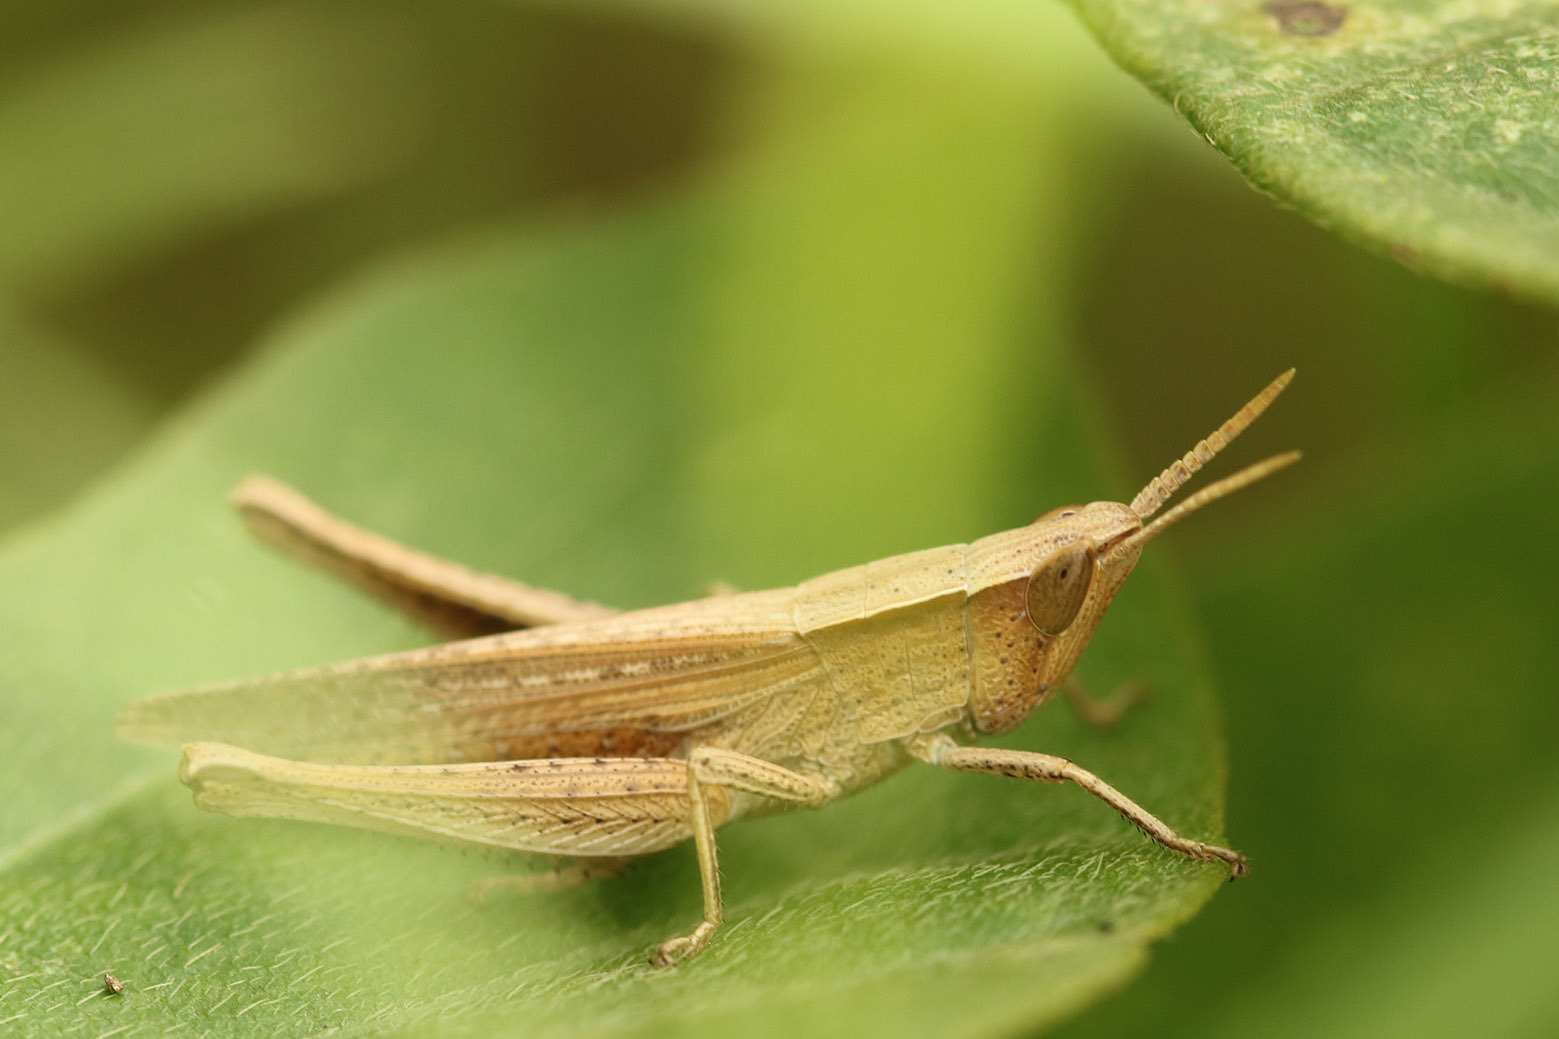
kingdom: Animalia
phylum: Arthropoda
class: Insecta
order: Orthoptera
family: Acrididae
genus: Laplatacris
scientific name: Laplatacris dispar
